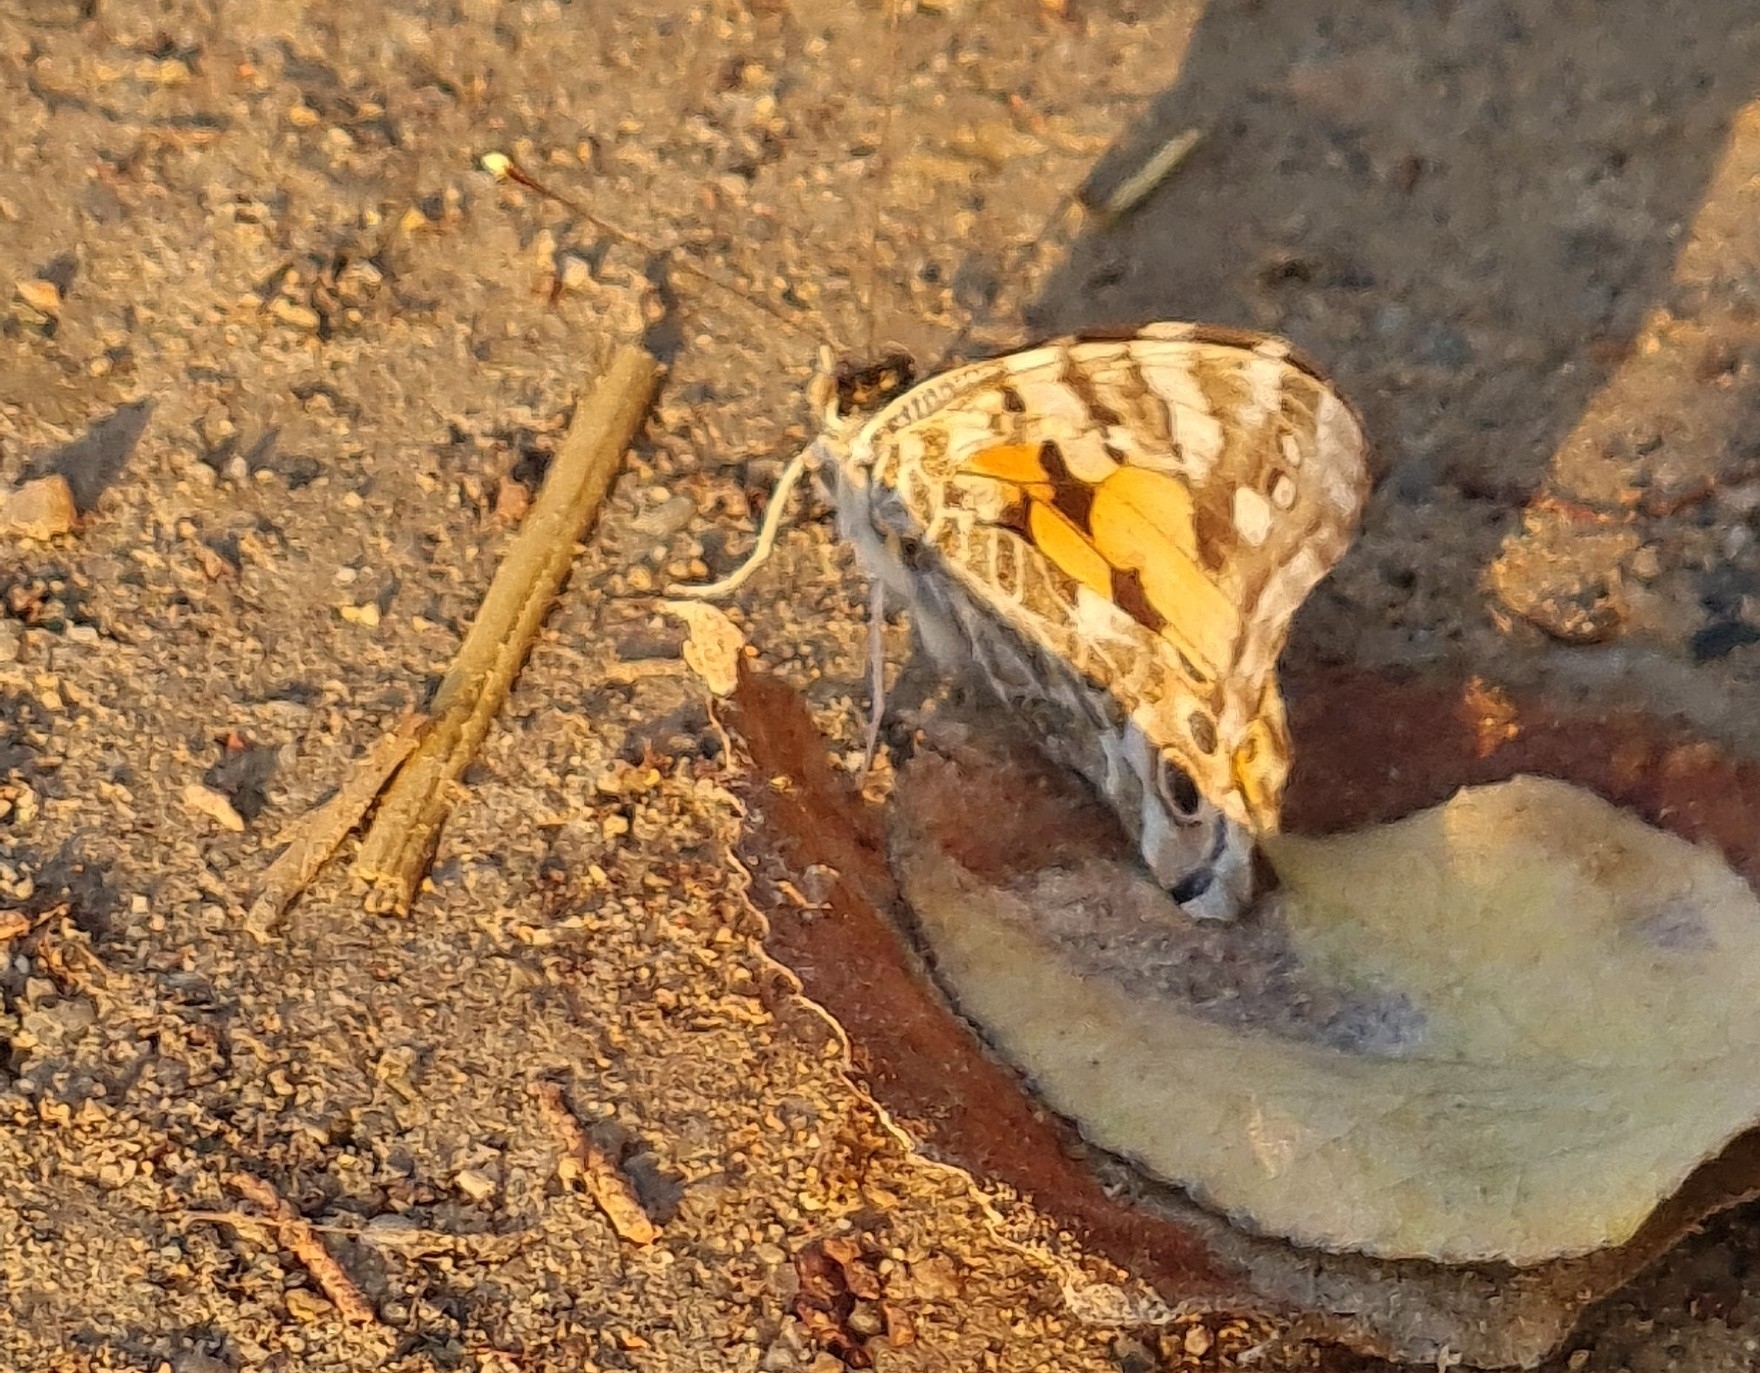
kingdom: Animalia
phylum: Arthropoda
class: Insecta
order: Lepidoptera
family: Nymphalidae
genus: Vanessa
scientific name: Vanessa cardui
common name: Painted lady
